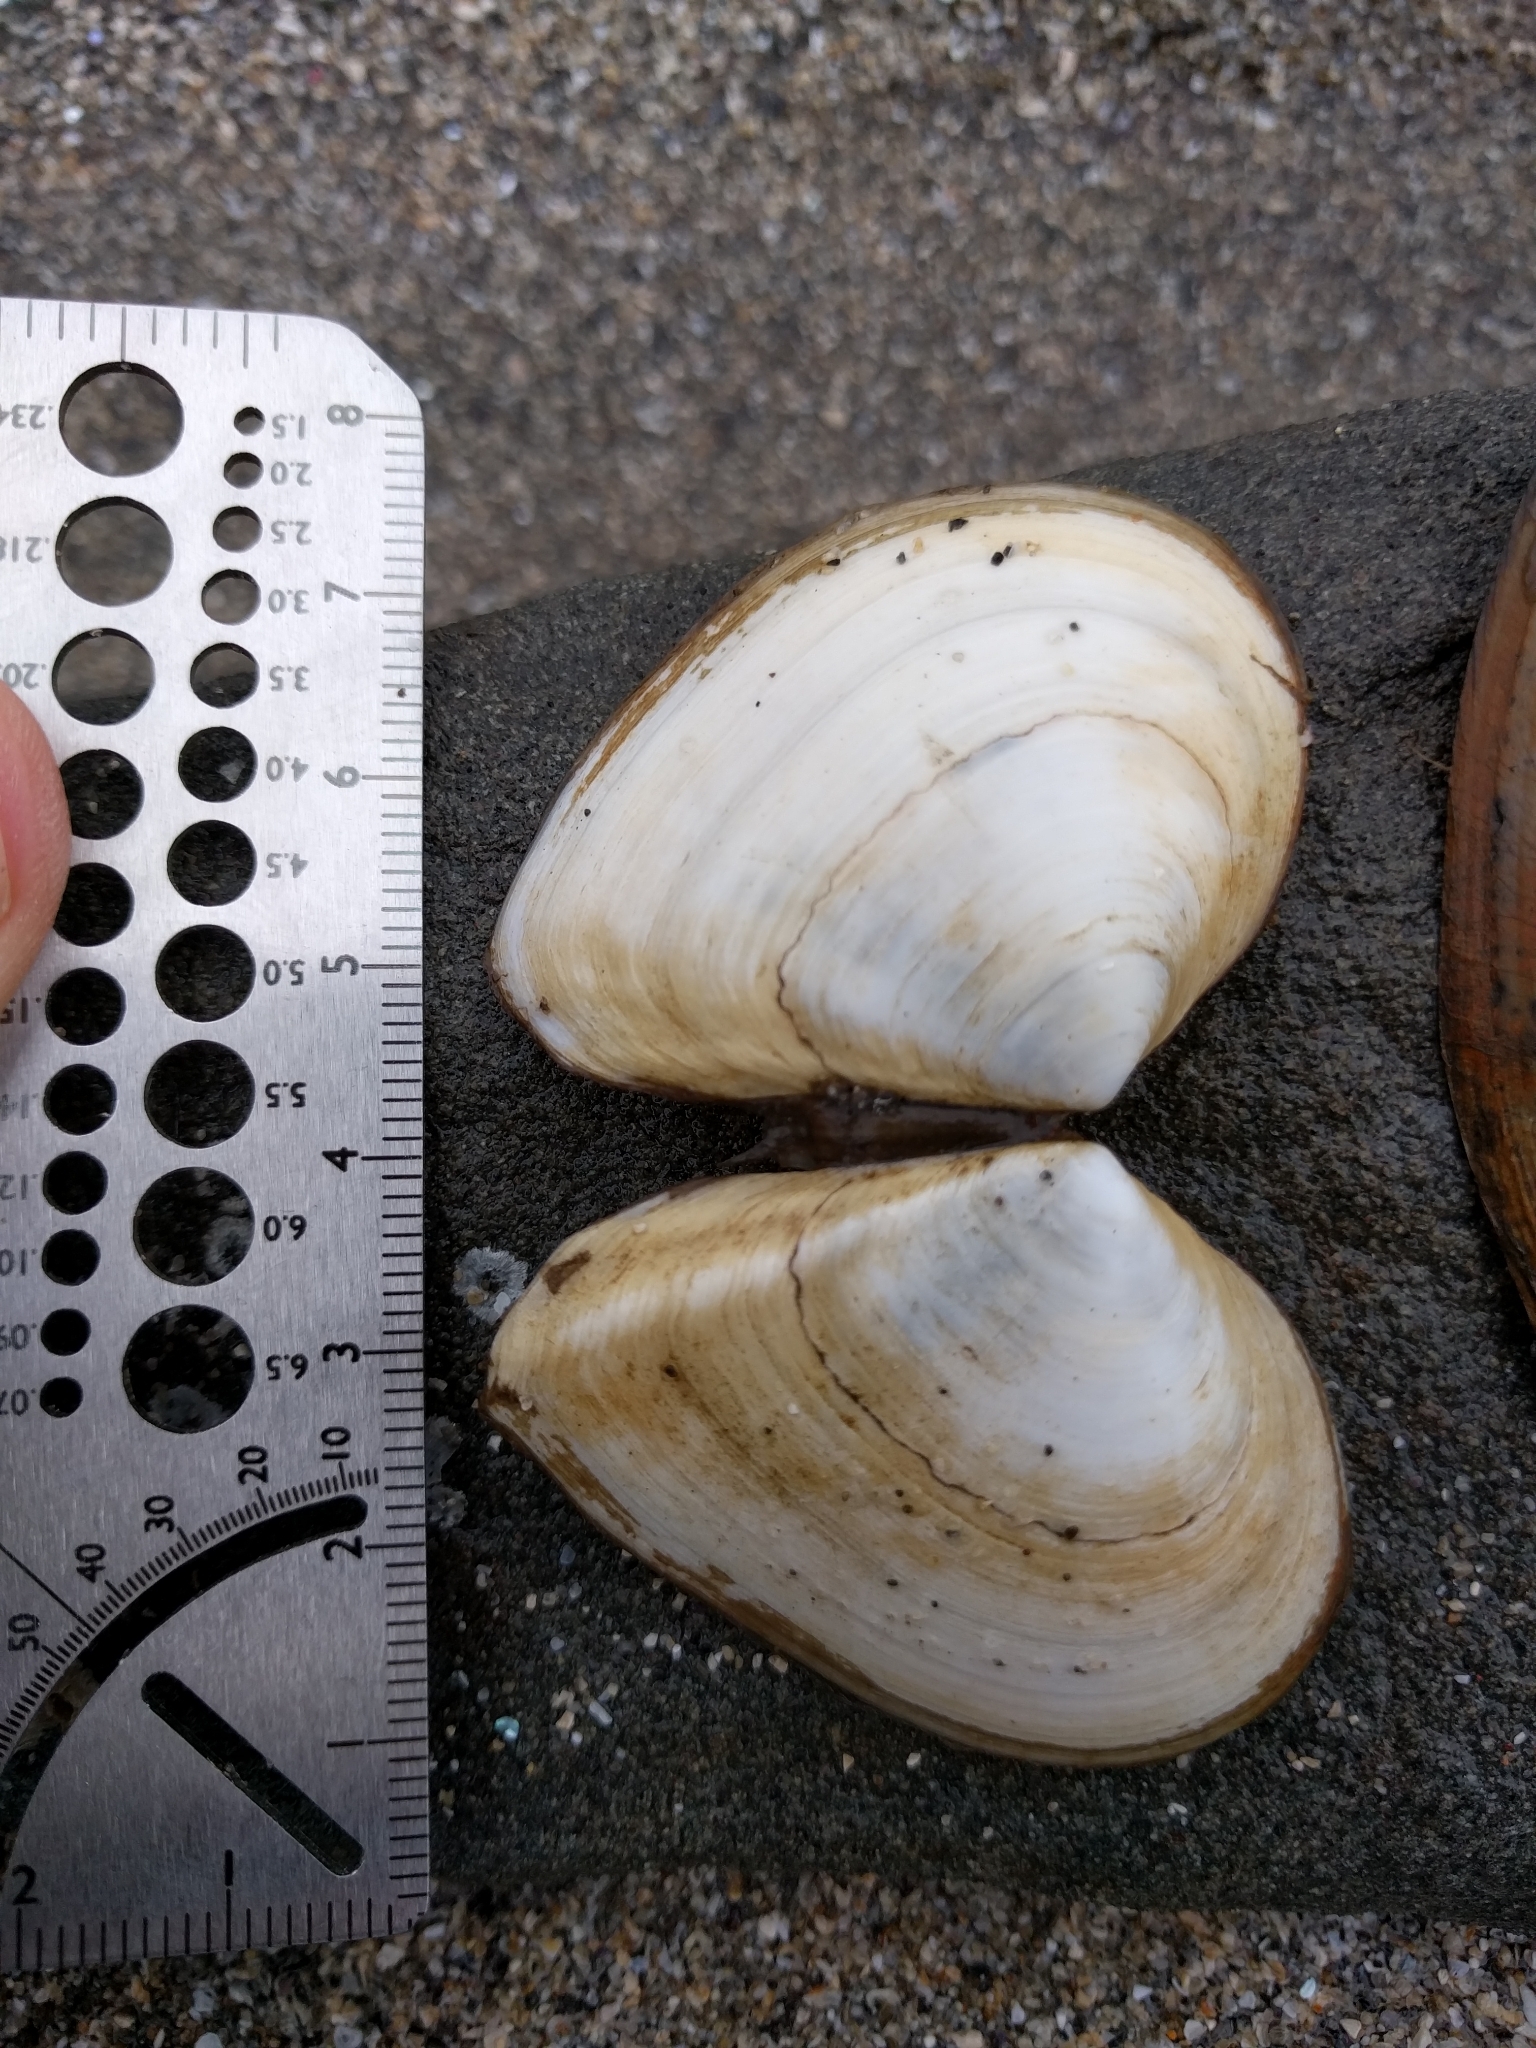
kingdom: Animalia
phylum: Mollusca
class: Bivalvia
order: Cardiida
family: Tellinidae
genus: Macoma
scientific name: Macoma nasuta
